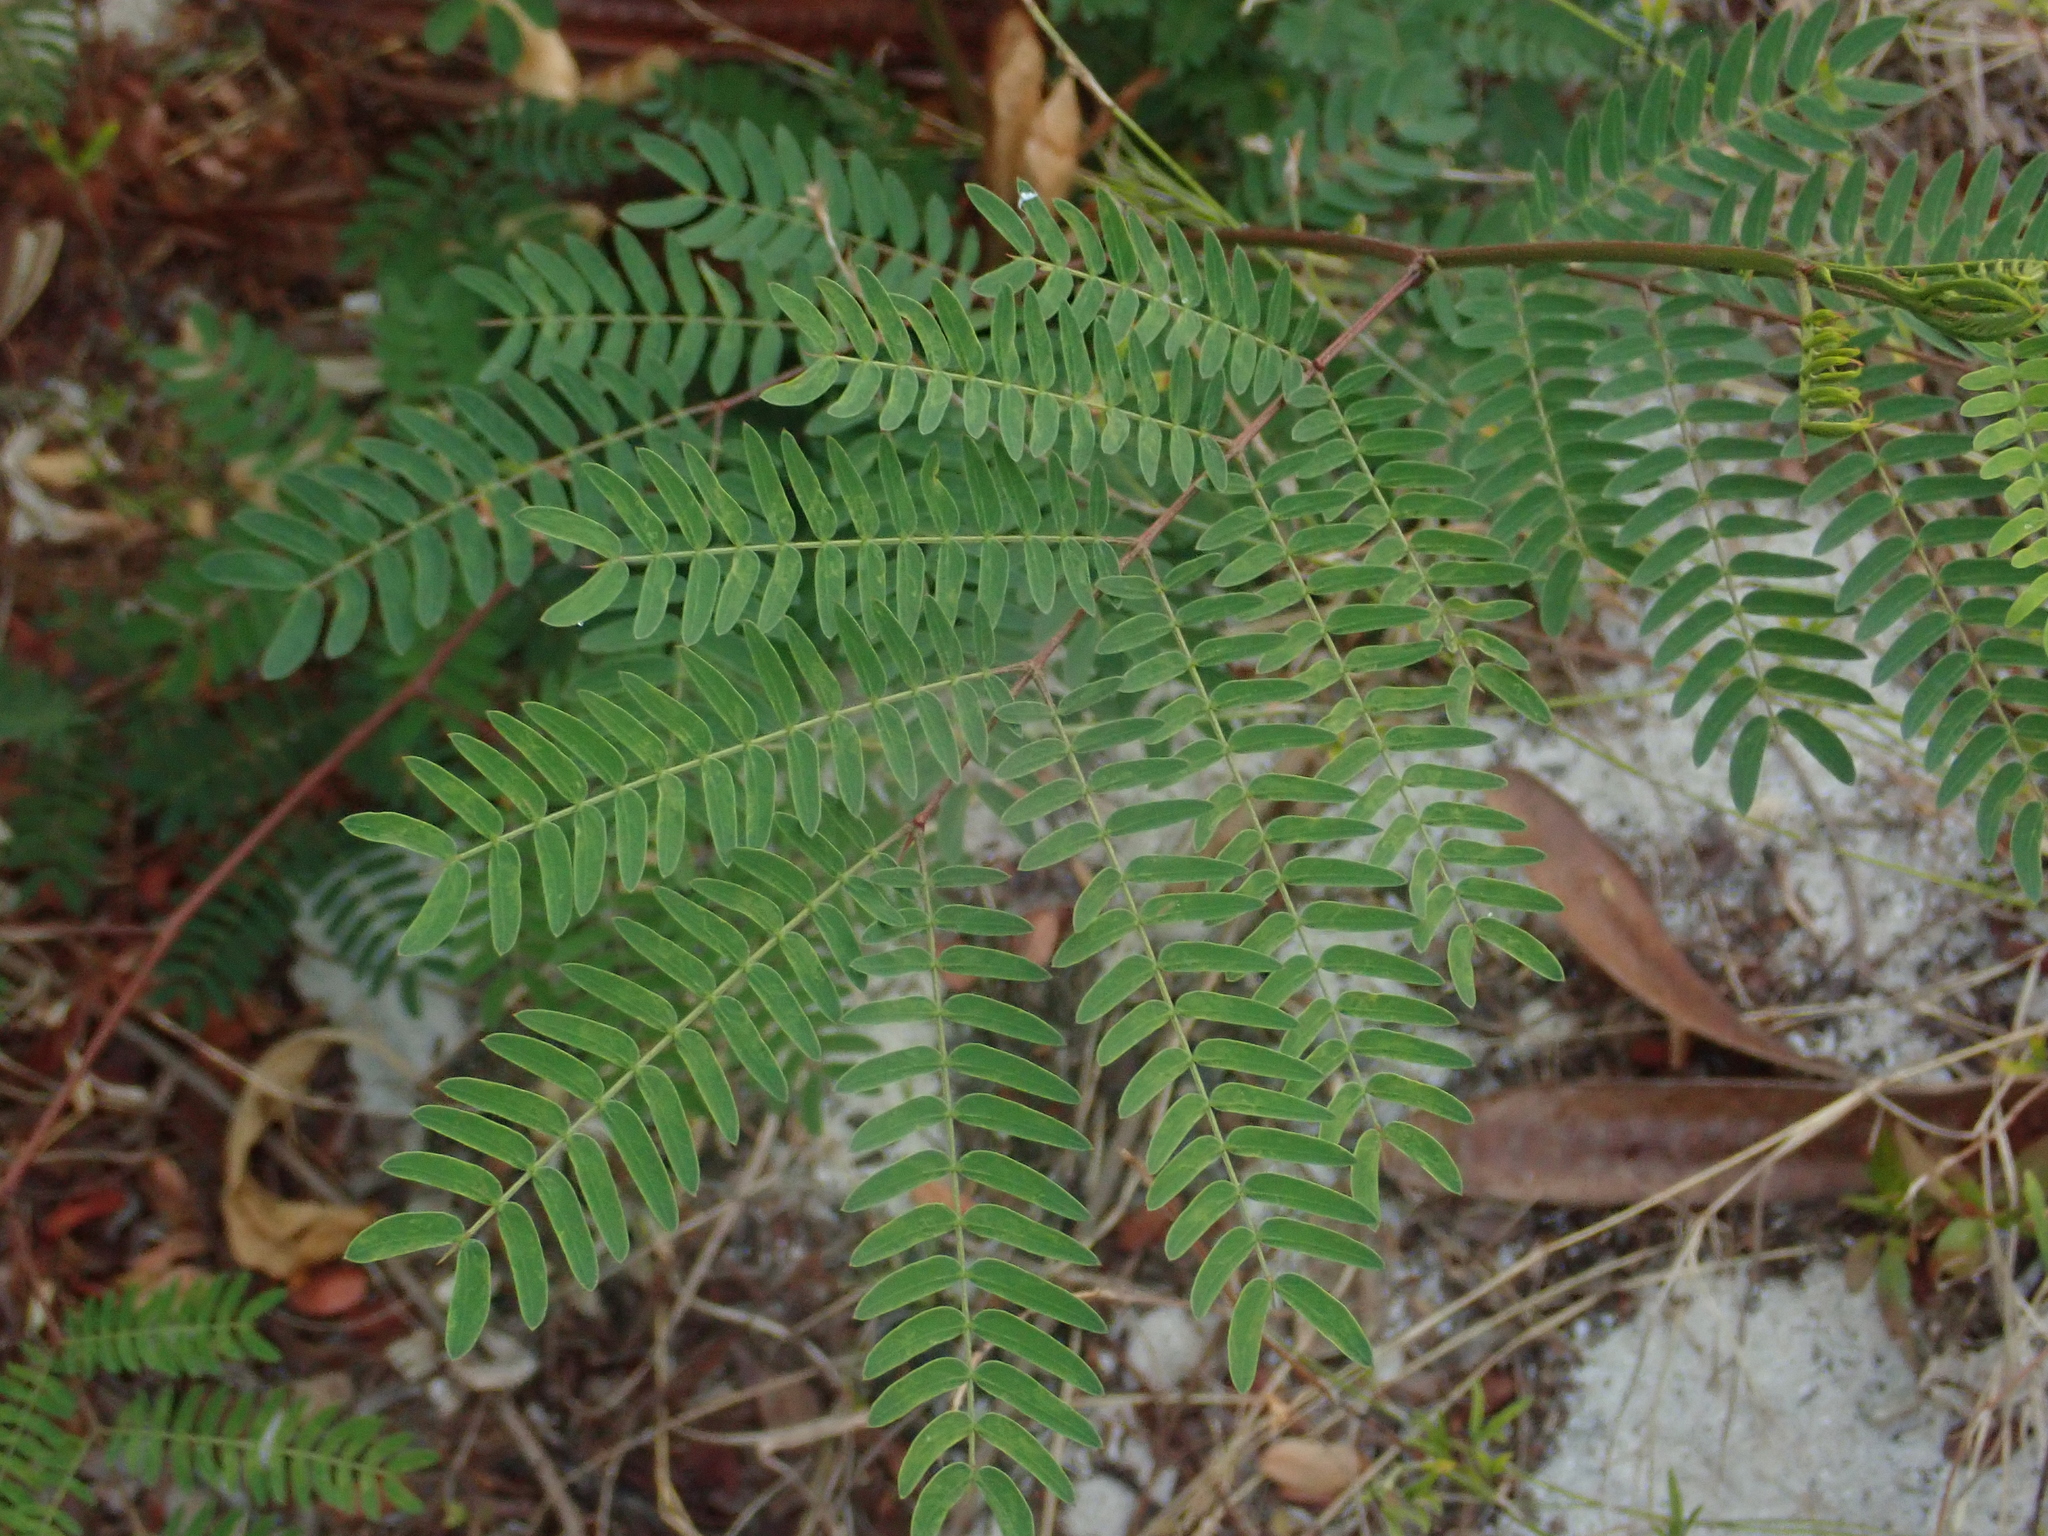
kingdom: Plantae
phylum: Tracheophyta
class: Magnoliopsida
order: Fabales
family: Fabaceae
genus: Leucaena
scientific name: Leucaena leucocephala
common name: White leadtree
